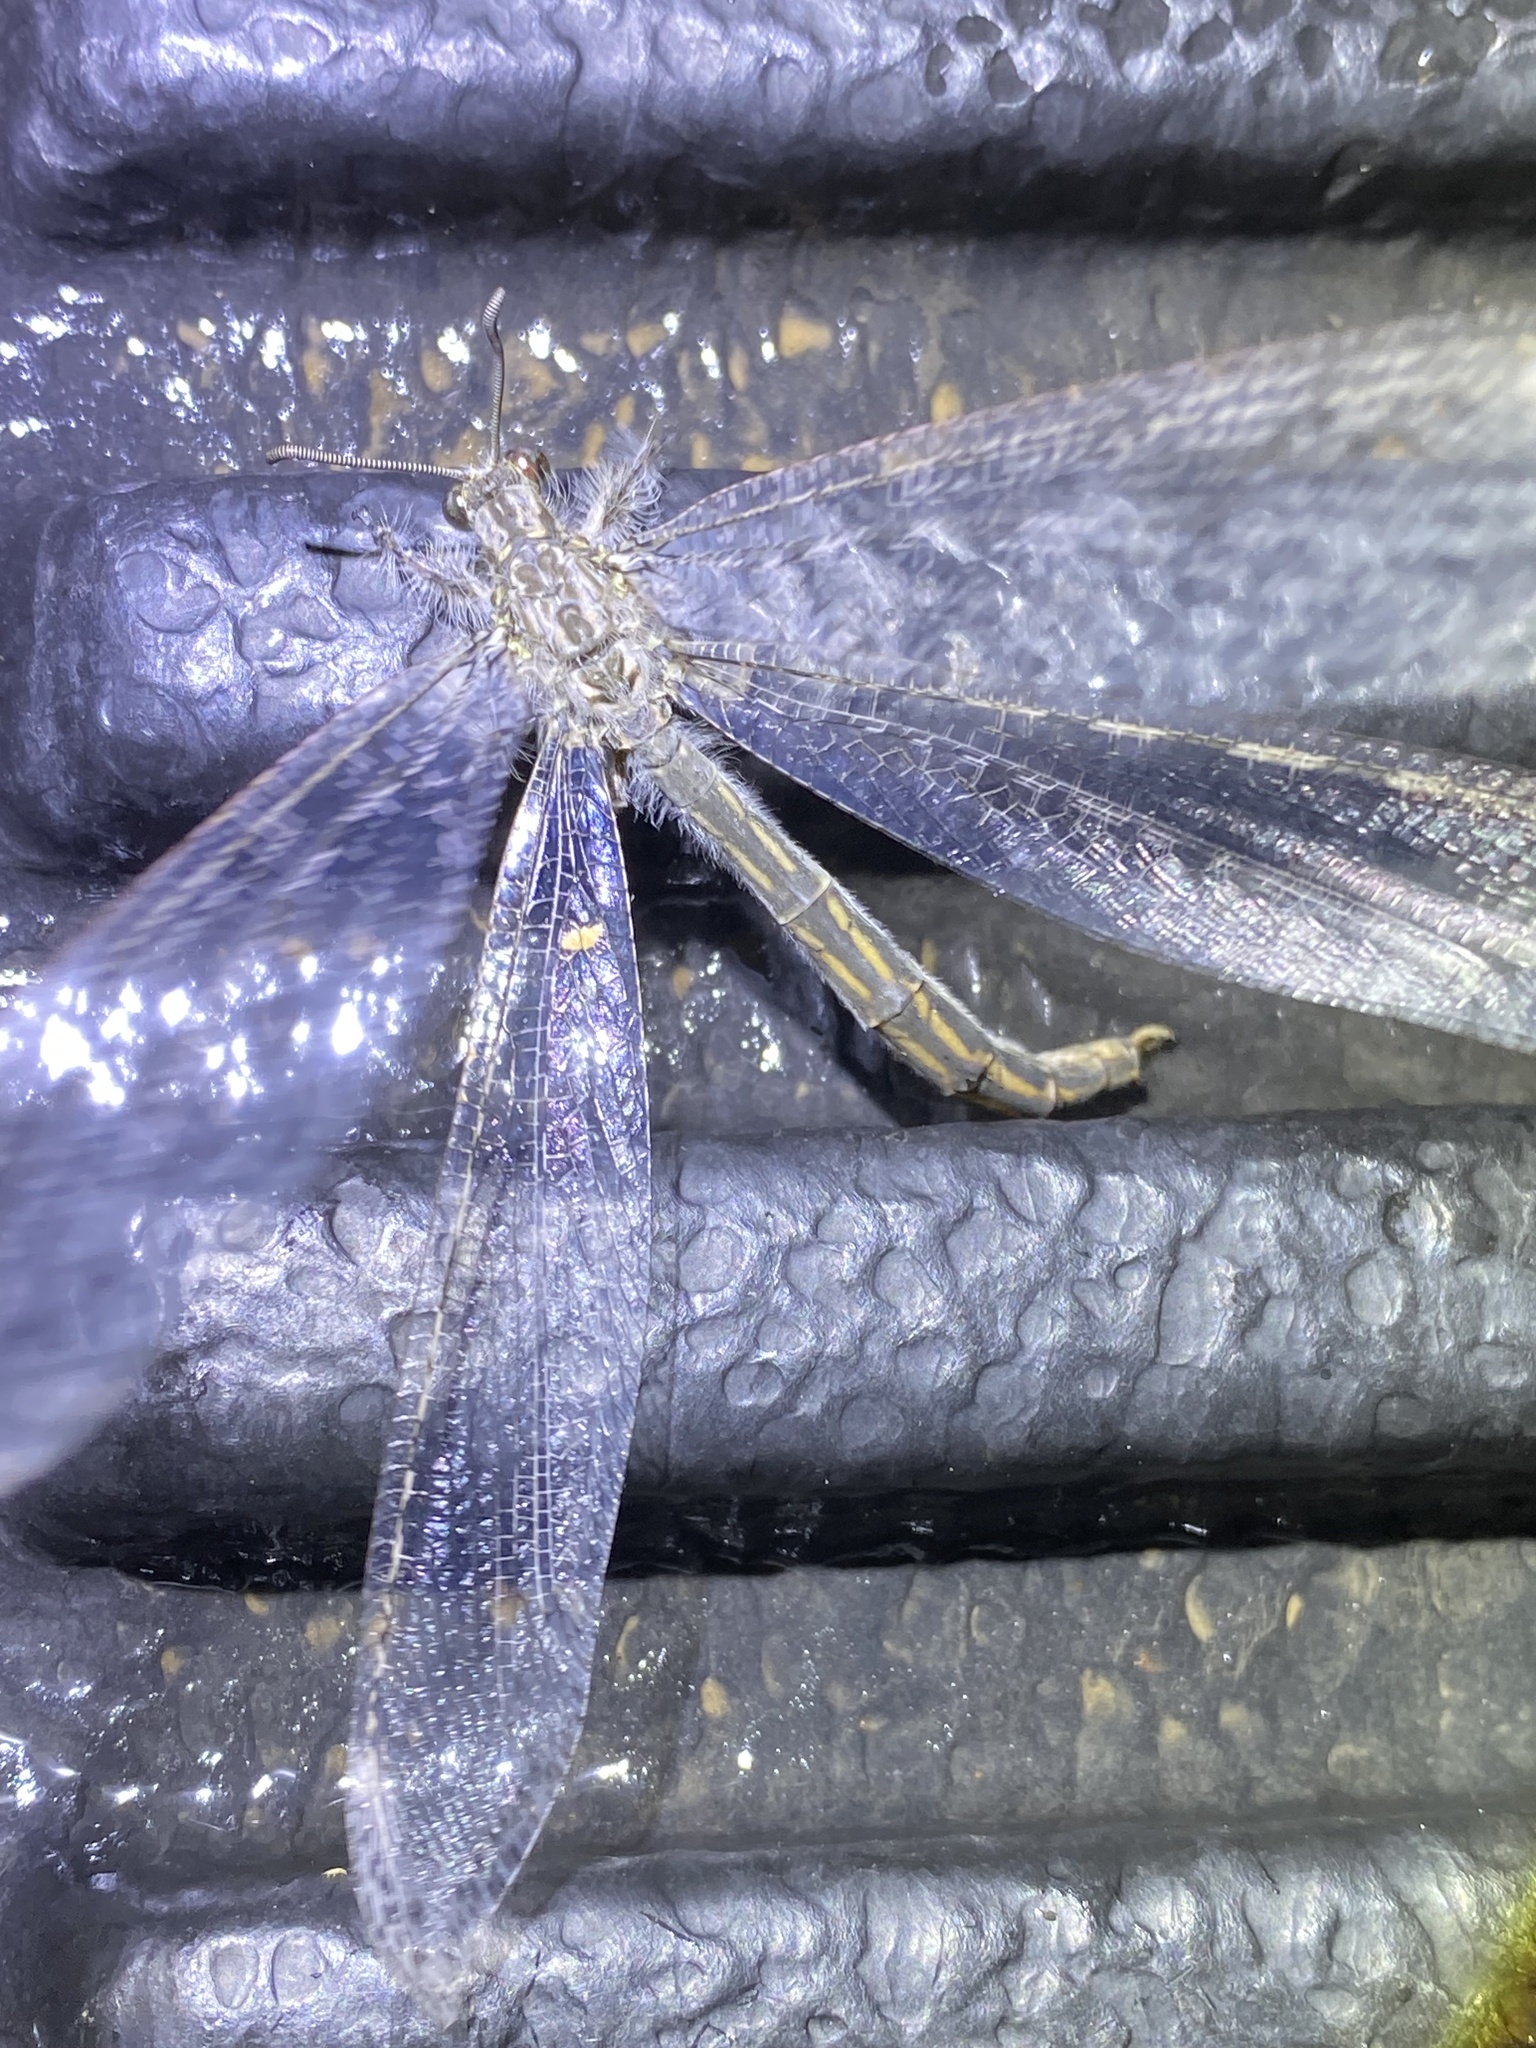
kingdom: Animalia
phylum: Arthropoda
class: Insecta
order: Neuroptera
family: Myrmeleontidae
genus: Vella
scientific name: Vella fallax
